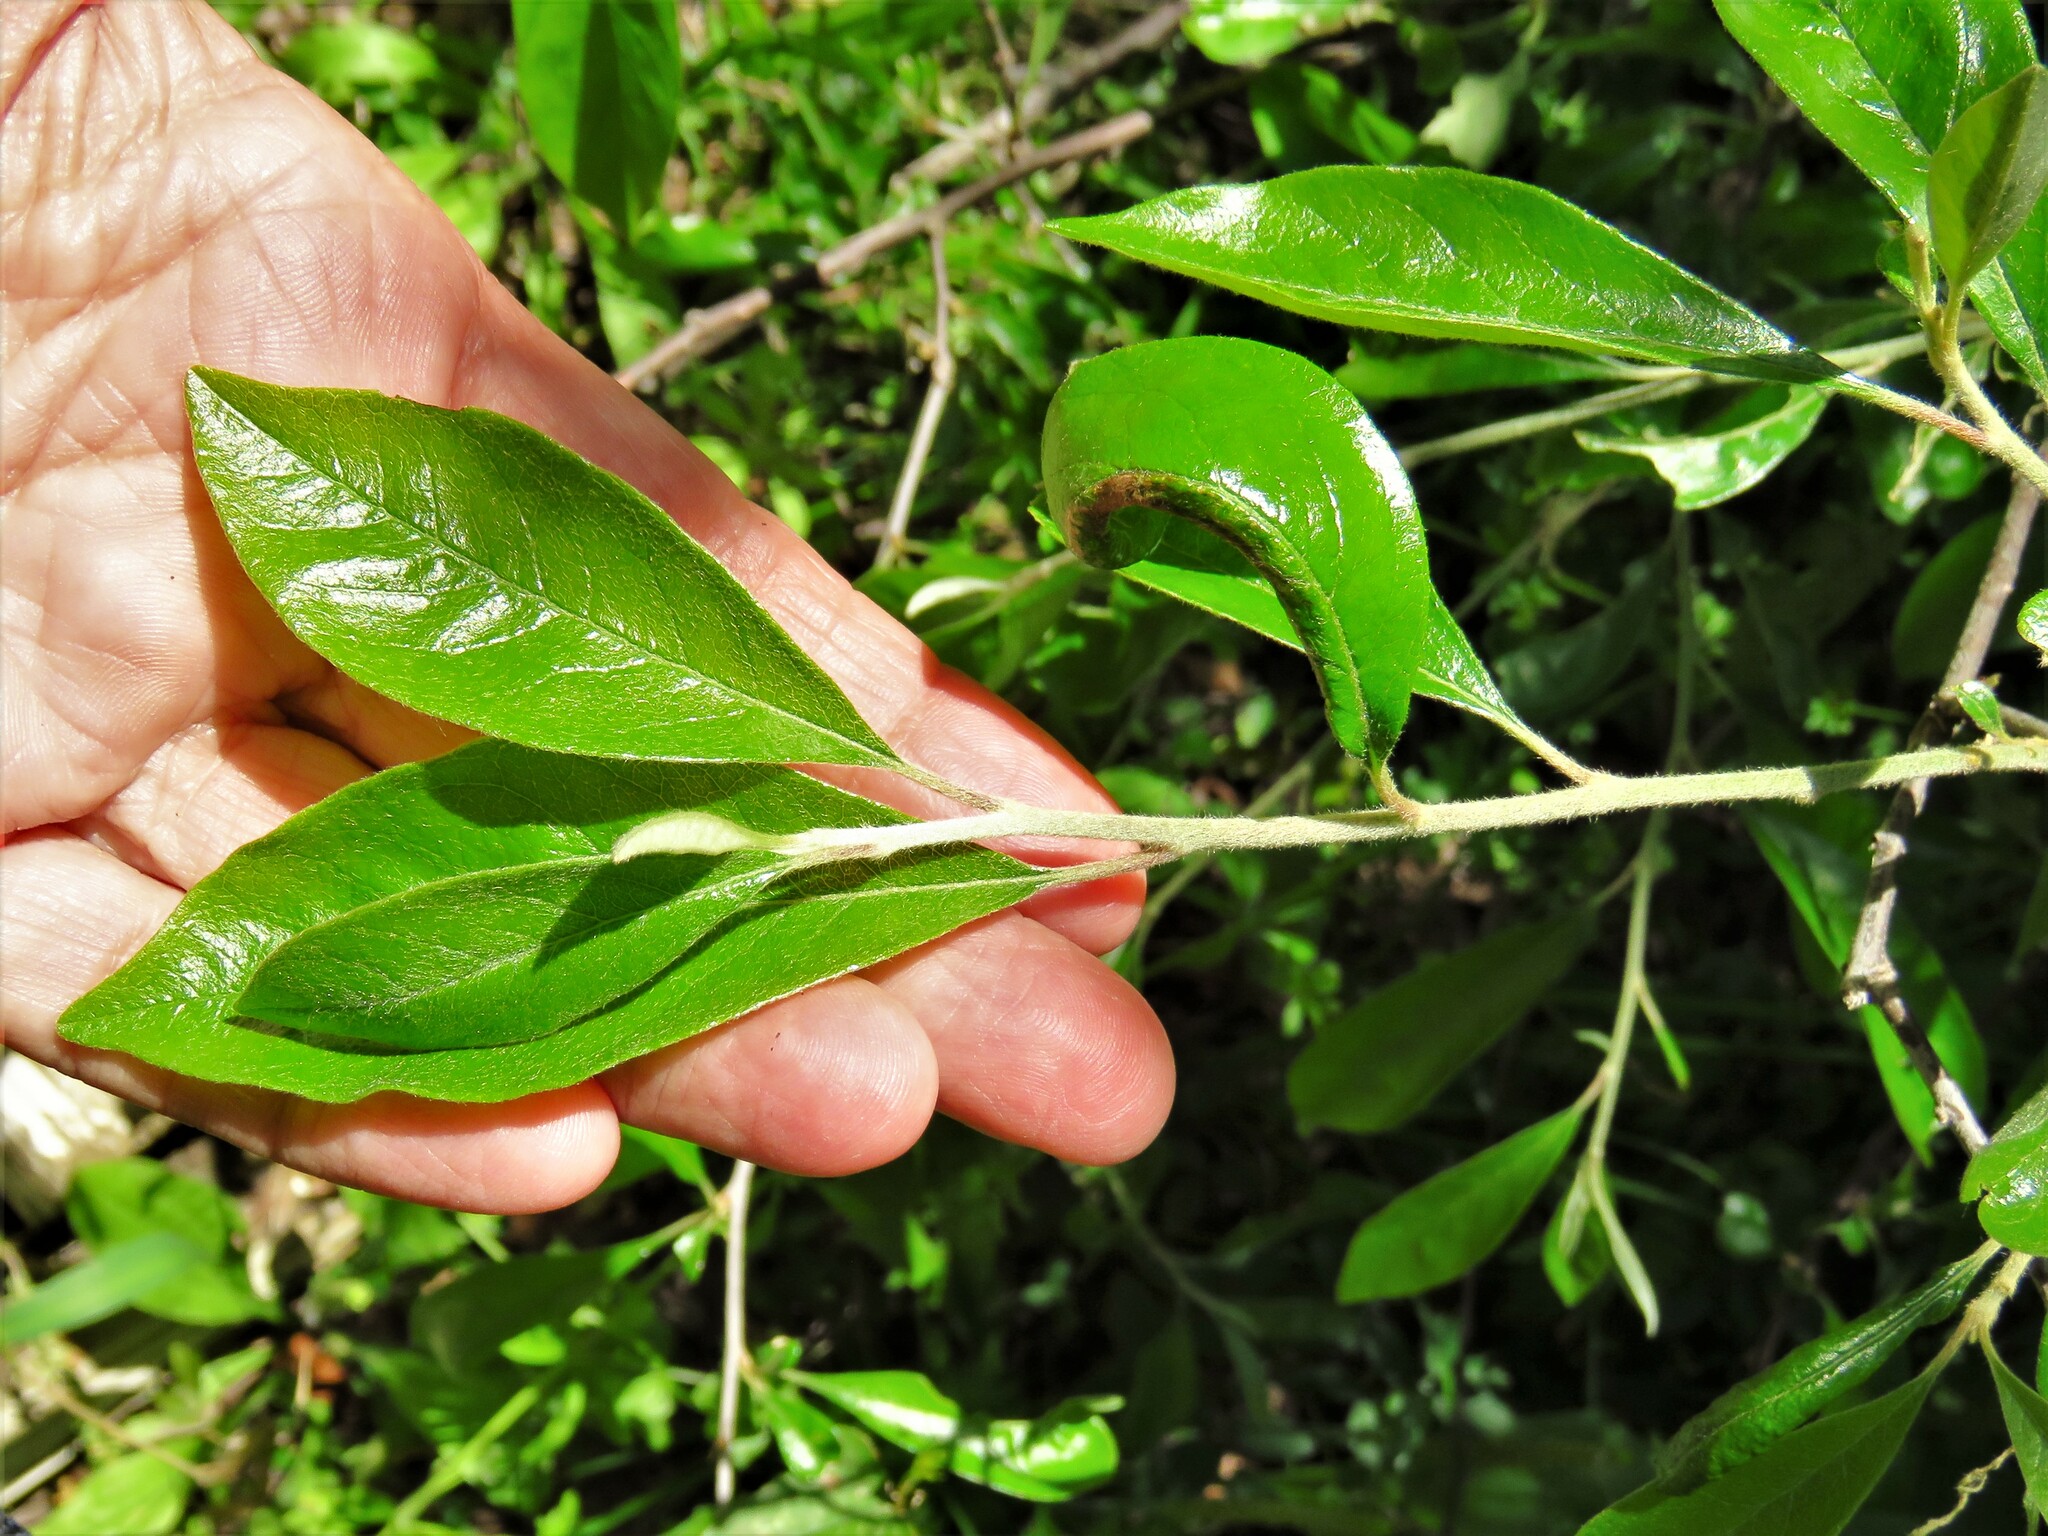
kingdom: Plantae
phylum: Tracheophyta
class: Magnoliopsida
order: Ericales
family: Sapotaceae
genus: Sideroxylon
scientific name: Sideroxylon lanuginosum
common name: Chittamwood
